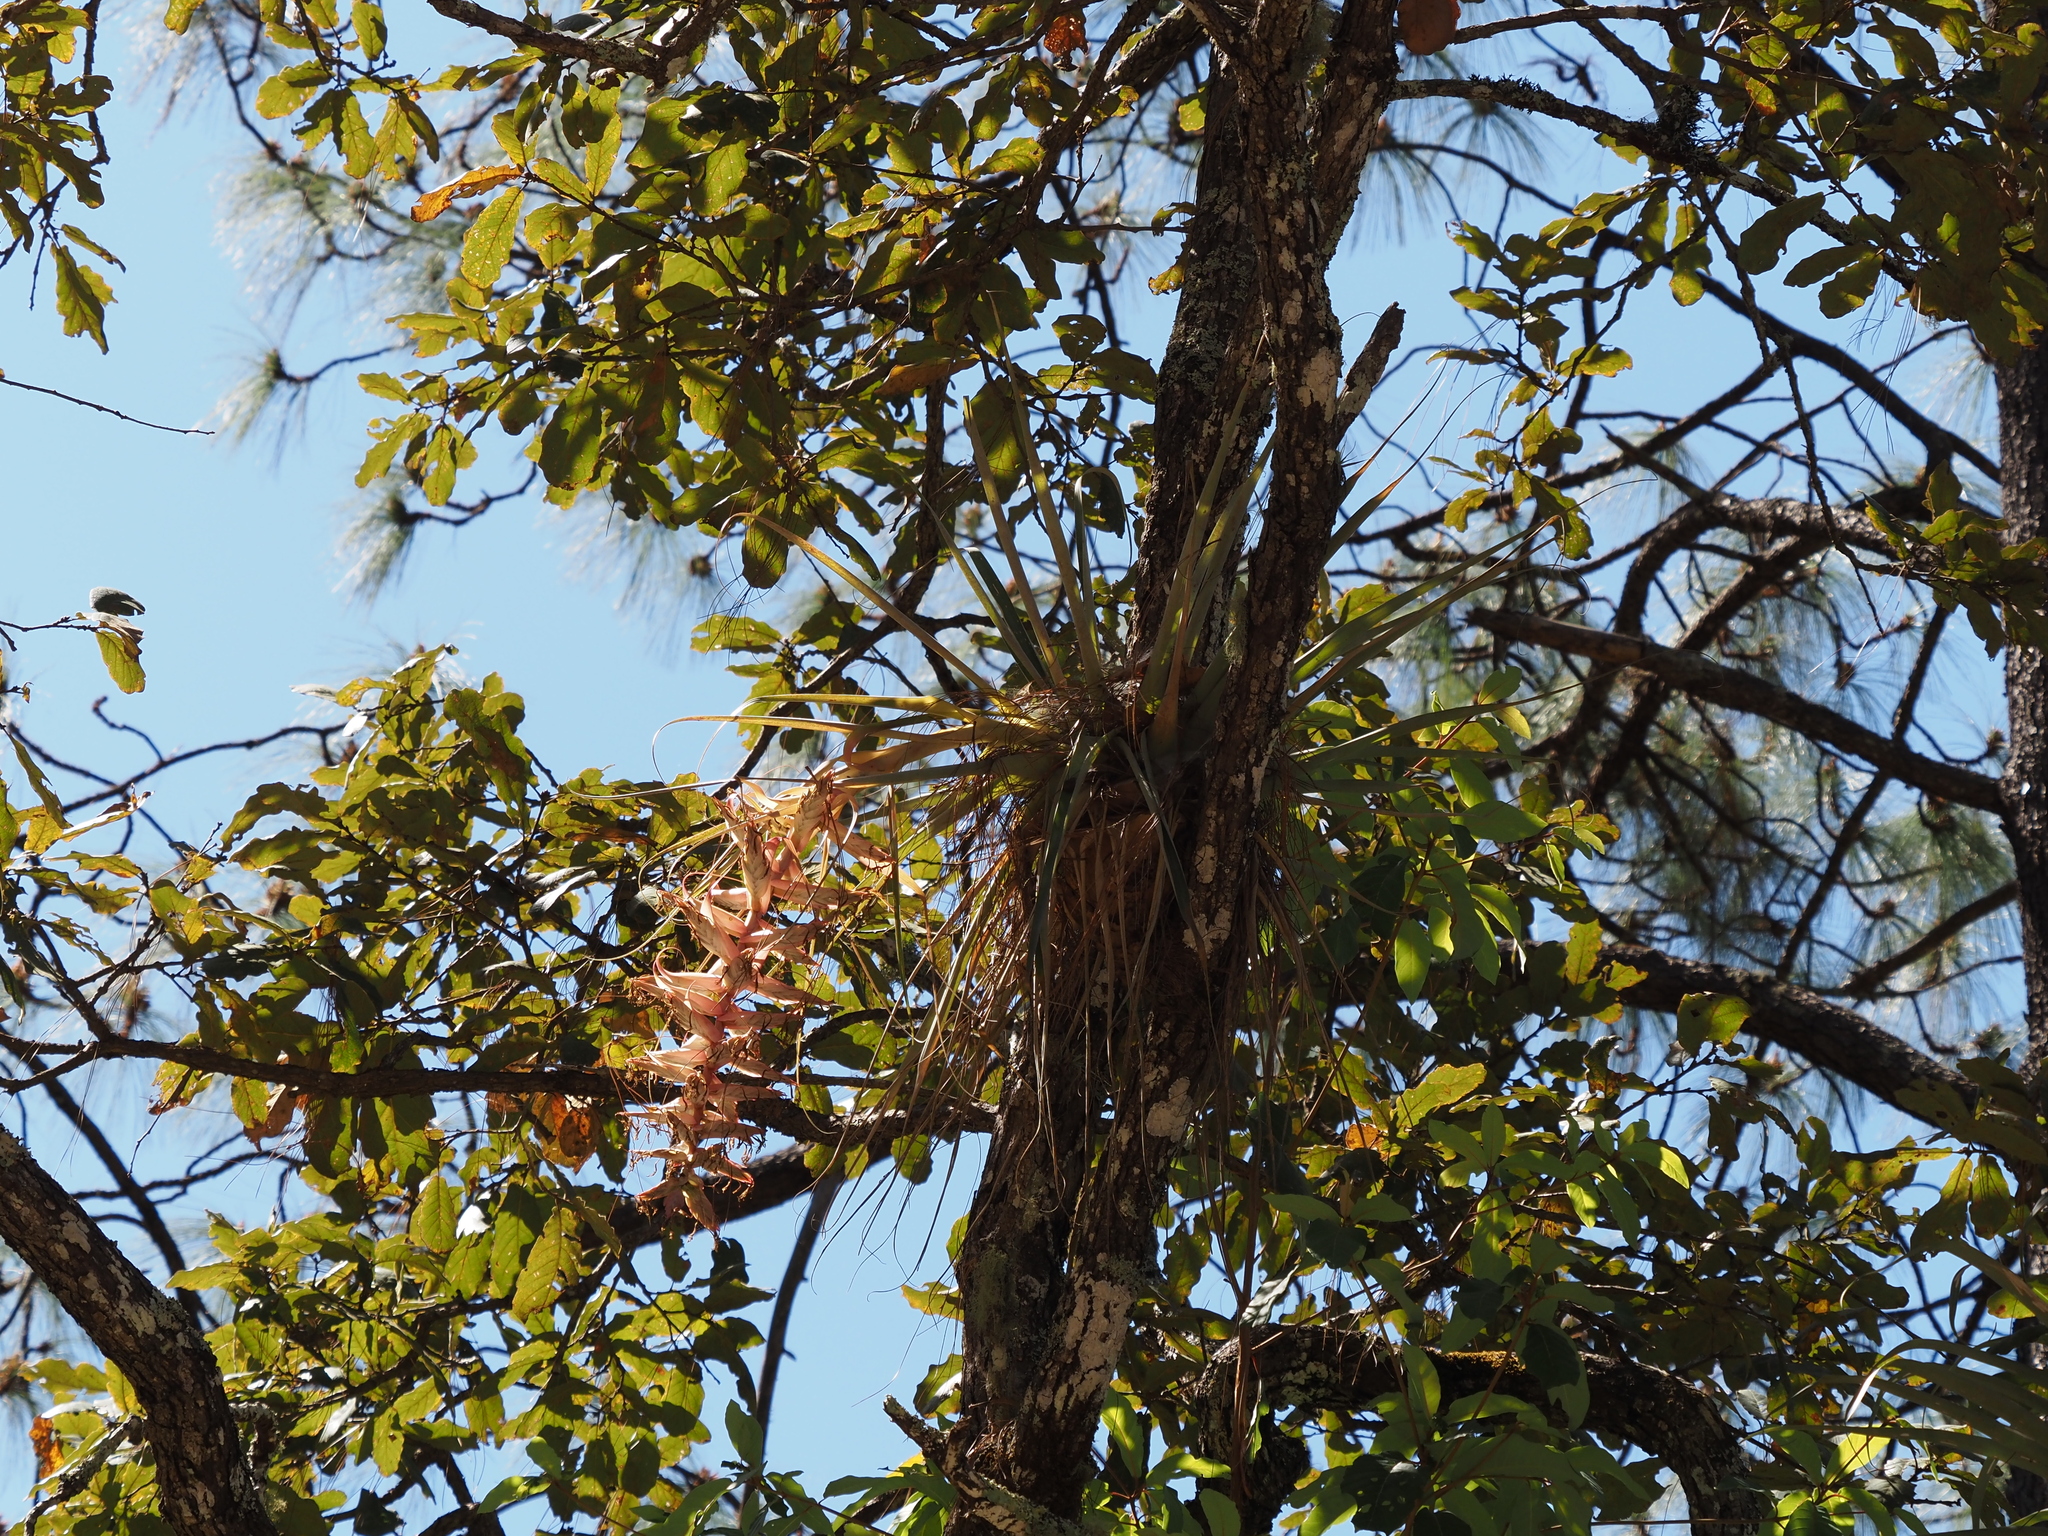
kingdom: Plantae
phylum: Tracheophyta
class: Liliopsida
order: Poales
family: Bromeliaceae
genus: Tillandsia
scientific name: Tillandsia prodigiosa
